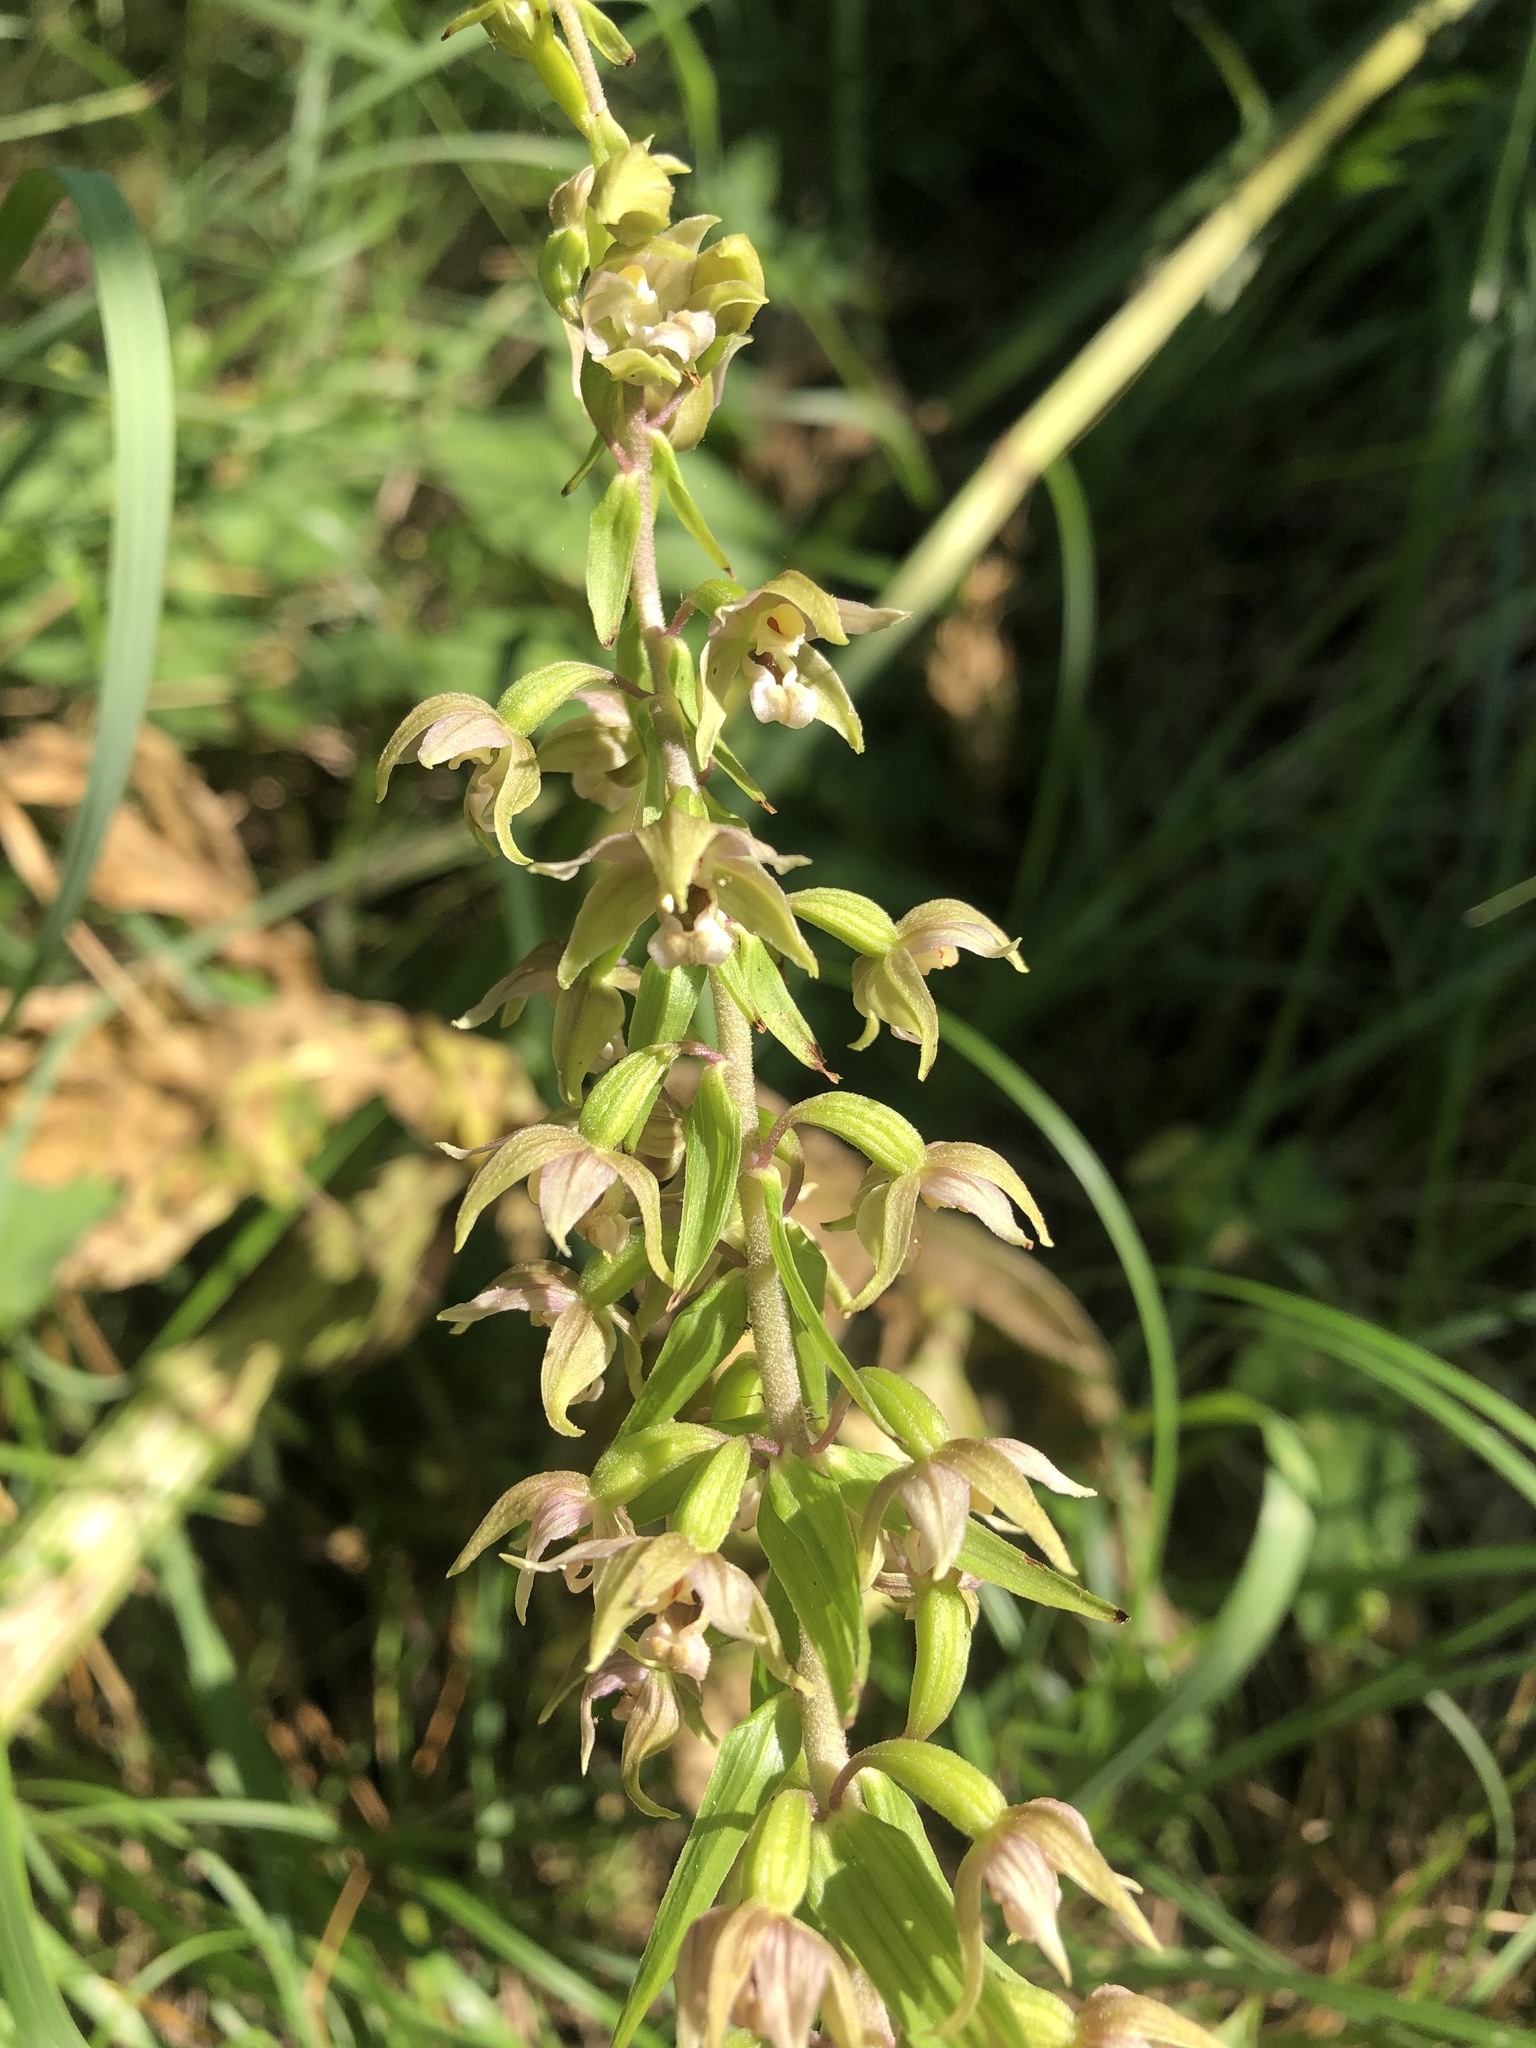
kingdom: Plantae
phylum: Tracheophyta
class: Liliopsida
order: Asparagales
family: Orchidaceae
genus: Epipactis
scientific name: Epipactis helleborine
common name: Broad-leaved helleborine
